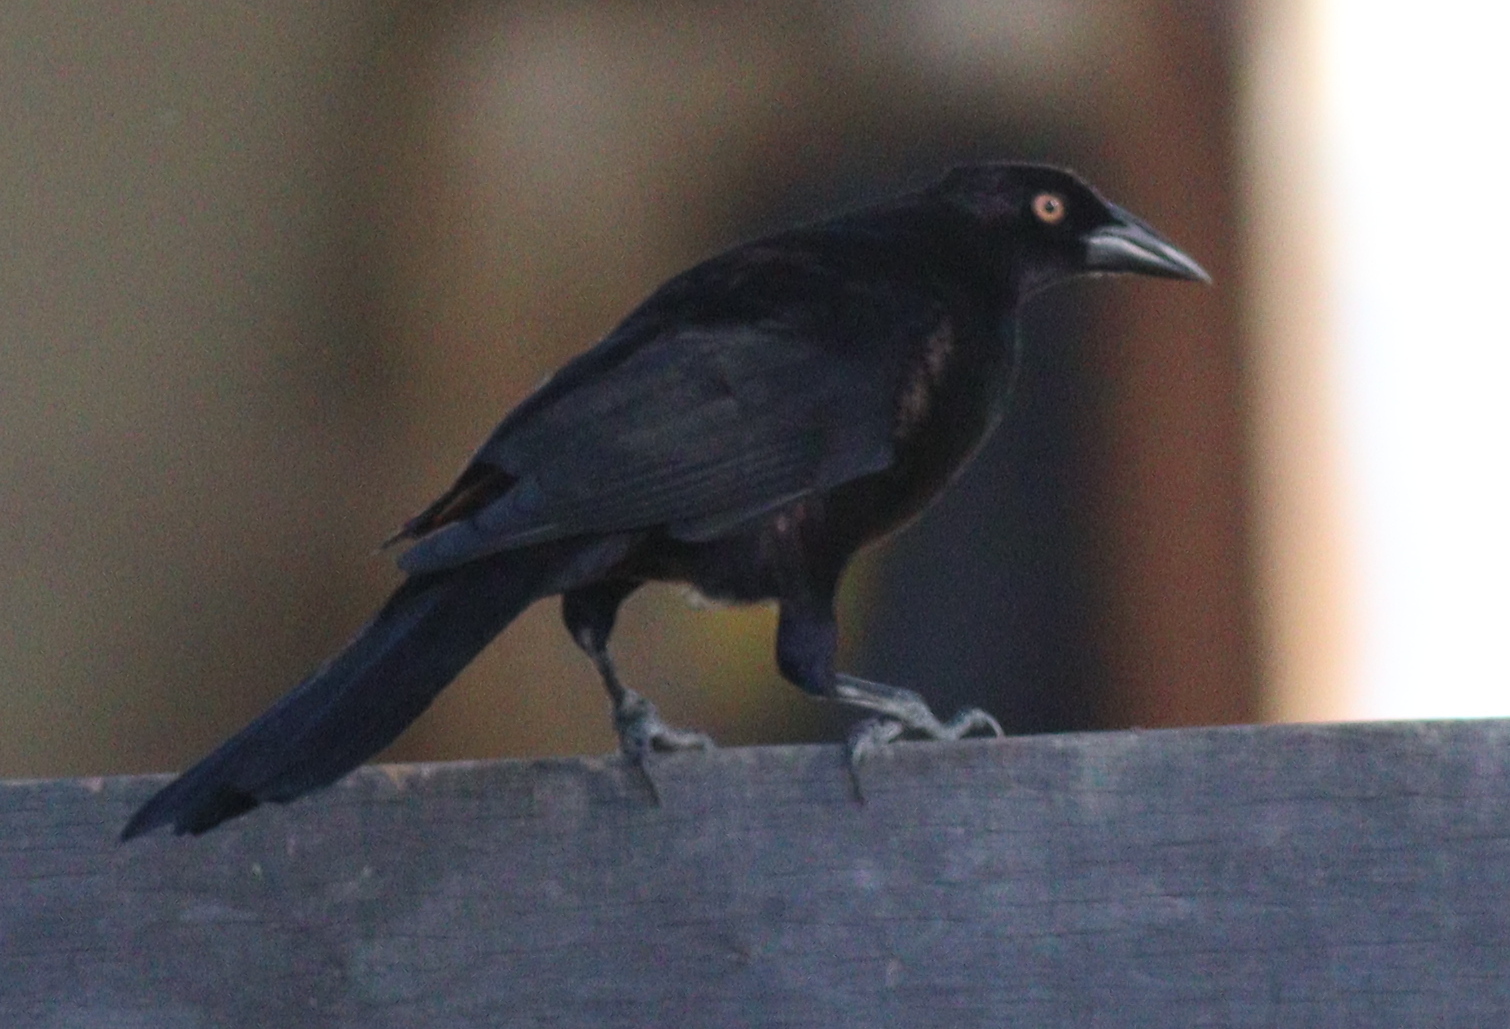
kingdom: Animalia
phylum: Chordata
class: Aves
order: Passeriformes
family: Icteridae
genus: Molothrus
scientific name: Molothrus oryzivorus
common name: Giant cowbird
